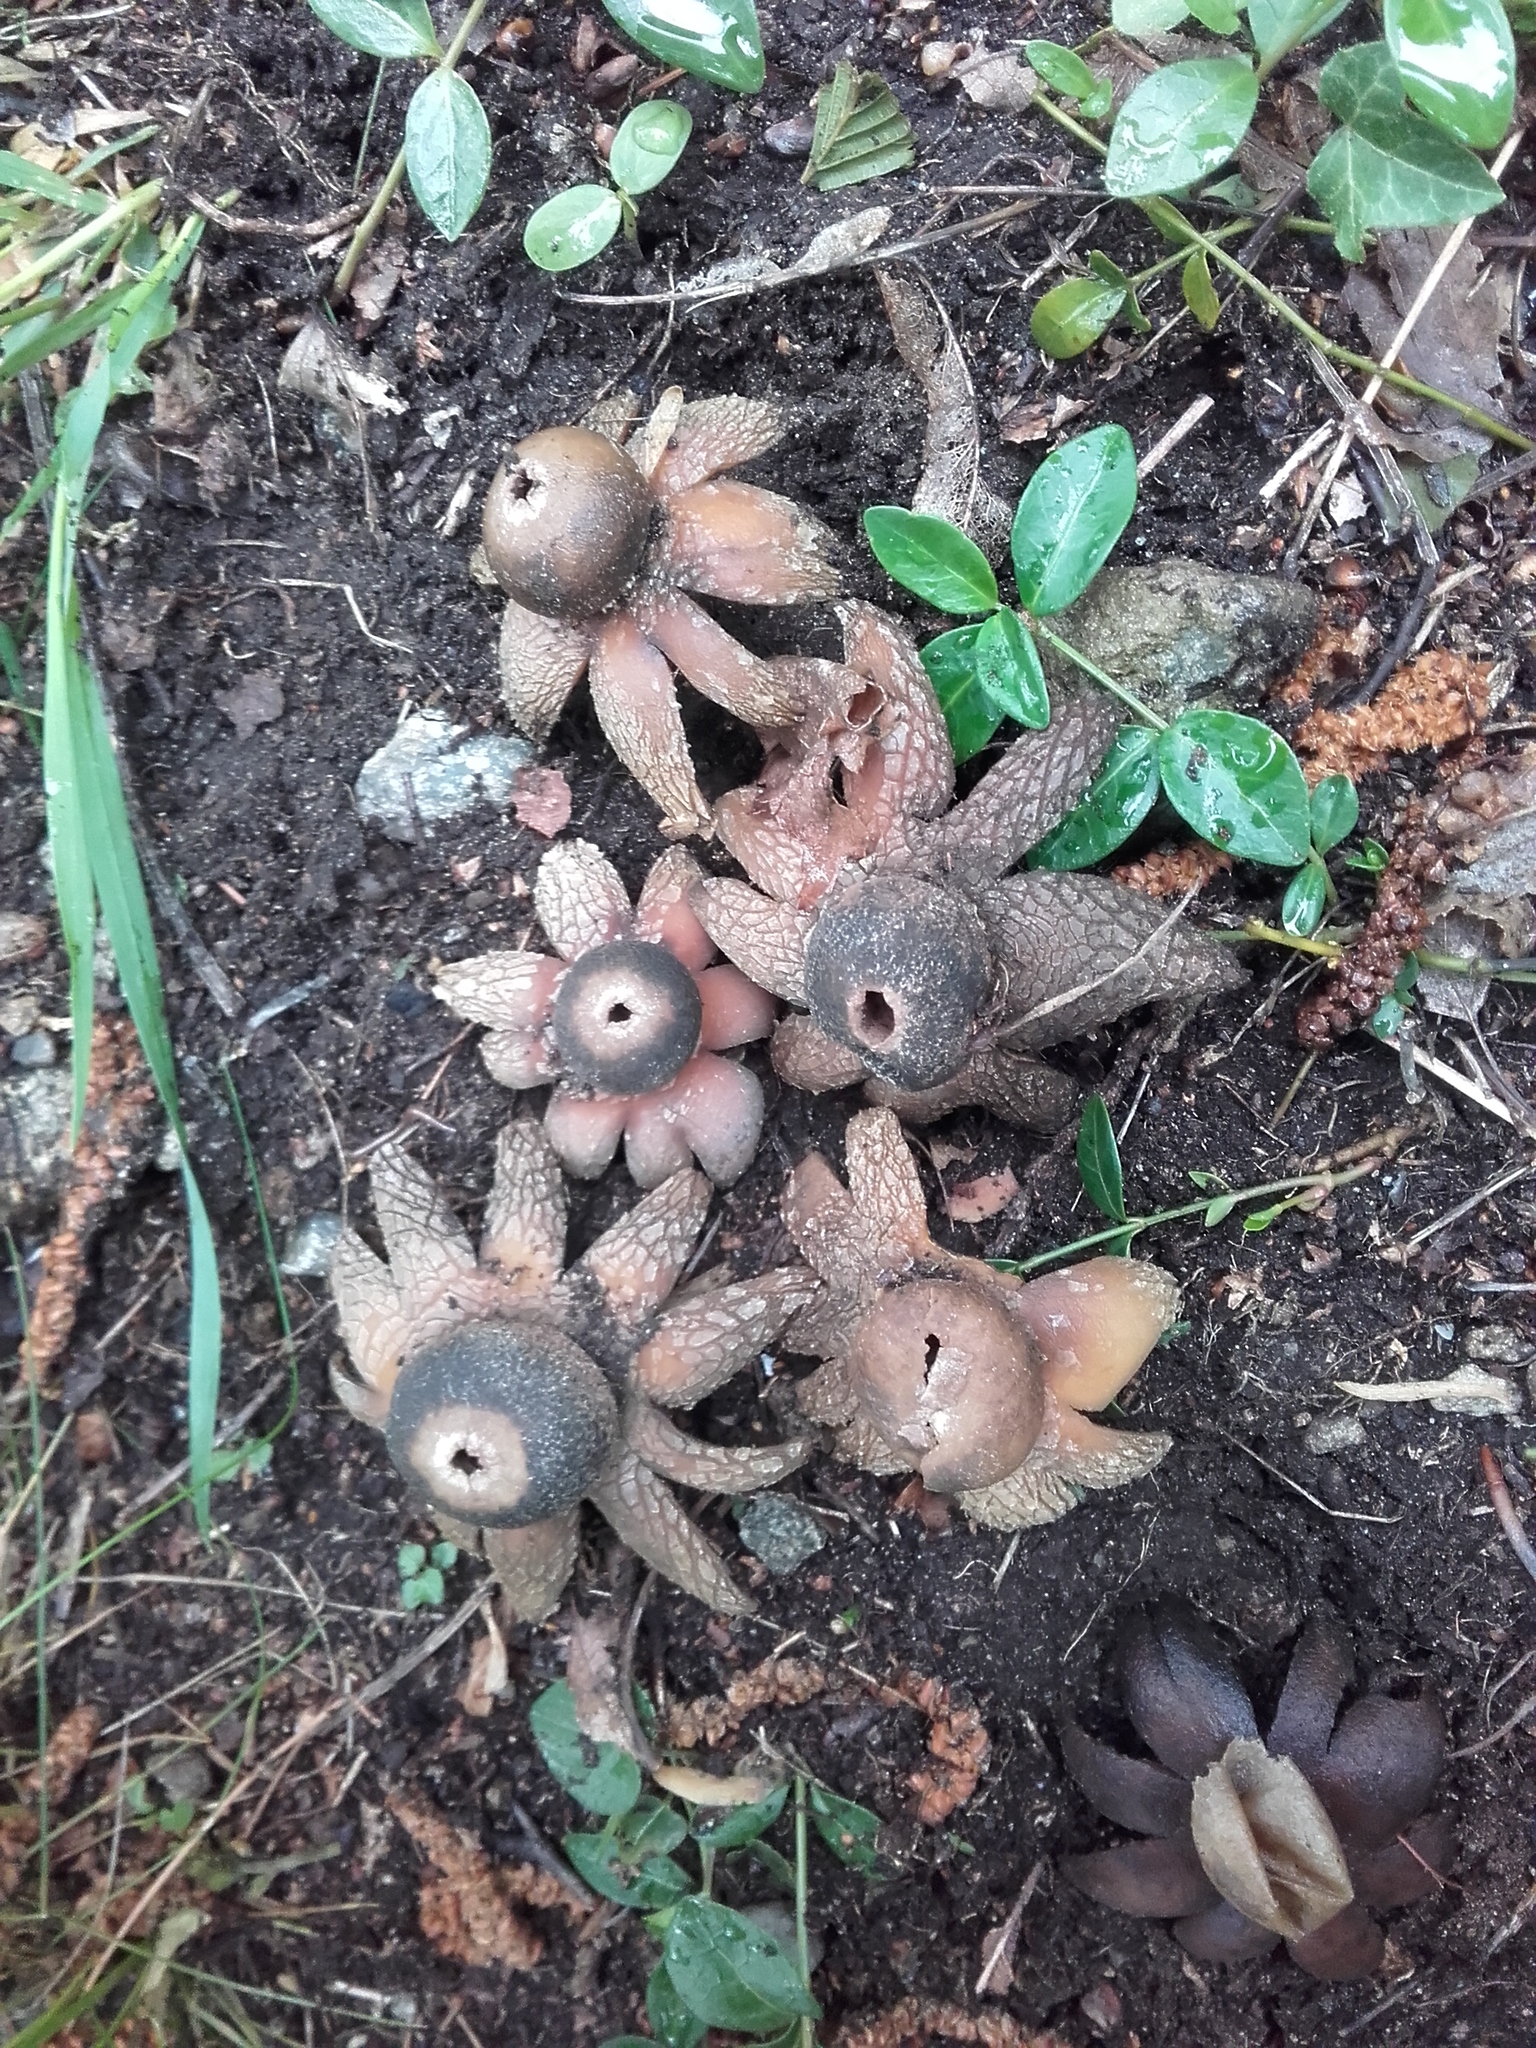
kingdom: Fungi
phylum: Basidiomycota
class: Agaricomycetes
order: Boletales
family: Diplocystidiaceae
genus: Astraeus
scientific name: Astraeus hygrometricus
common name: Barometer earthstar
